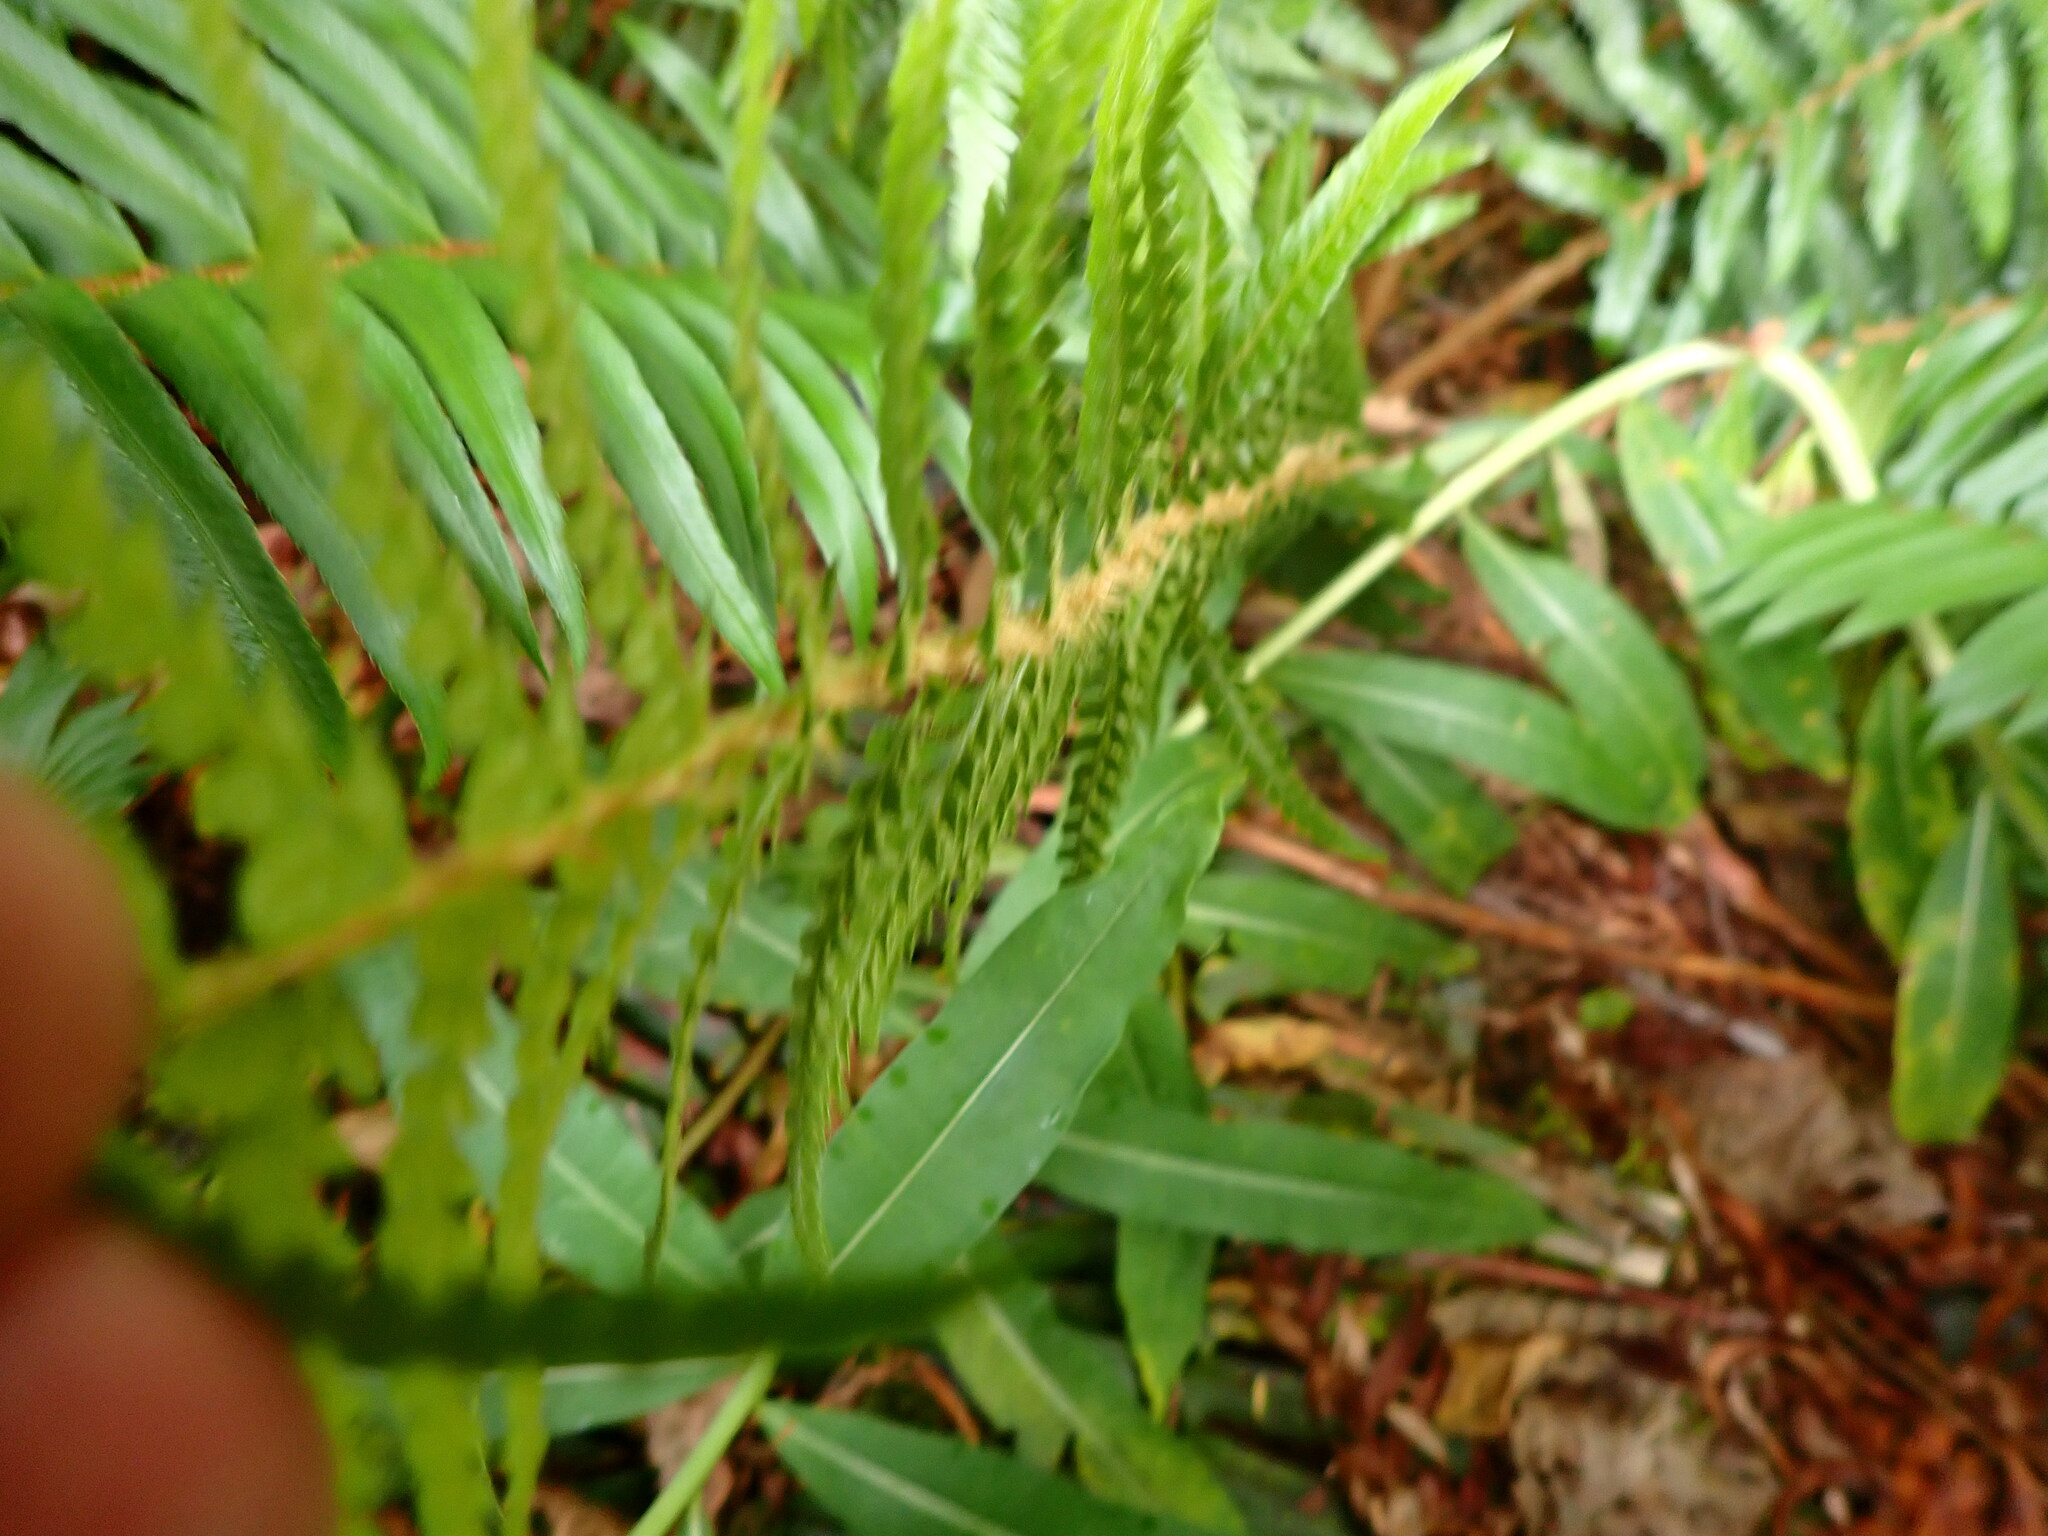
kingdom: Plantae
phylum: Tracheophyta
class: Polypodiopsida
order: Polypodiales
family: Dryopteridaceae
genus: Polystichum
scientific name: Polystichum andersonii
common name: Anderson's holly fern
